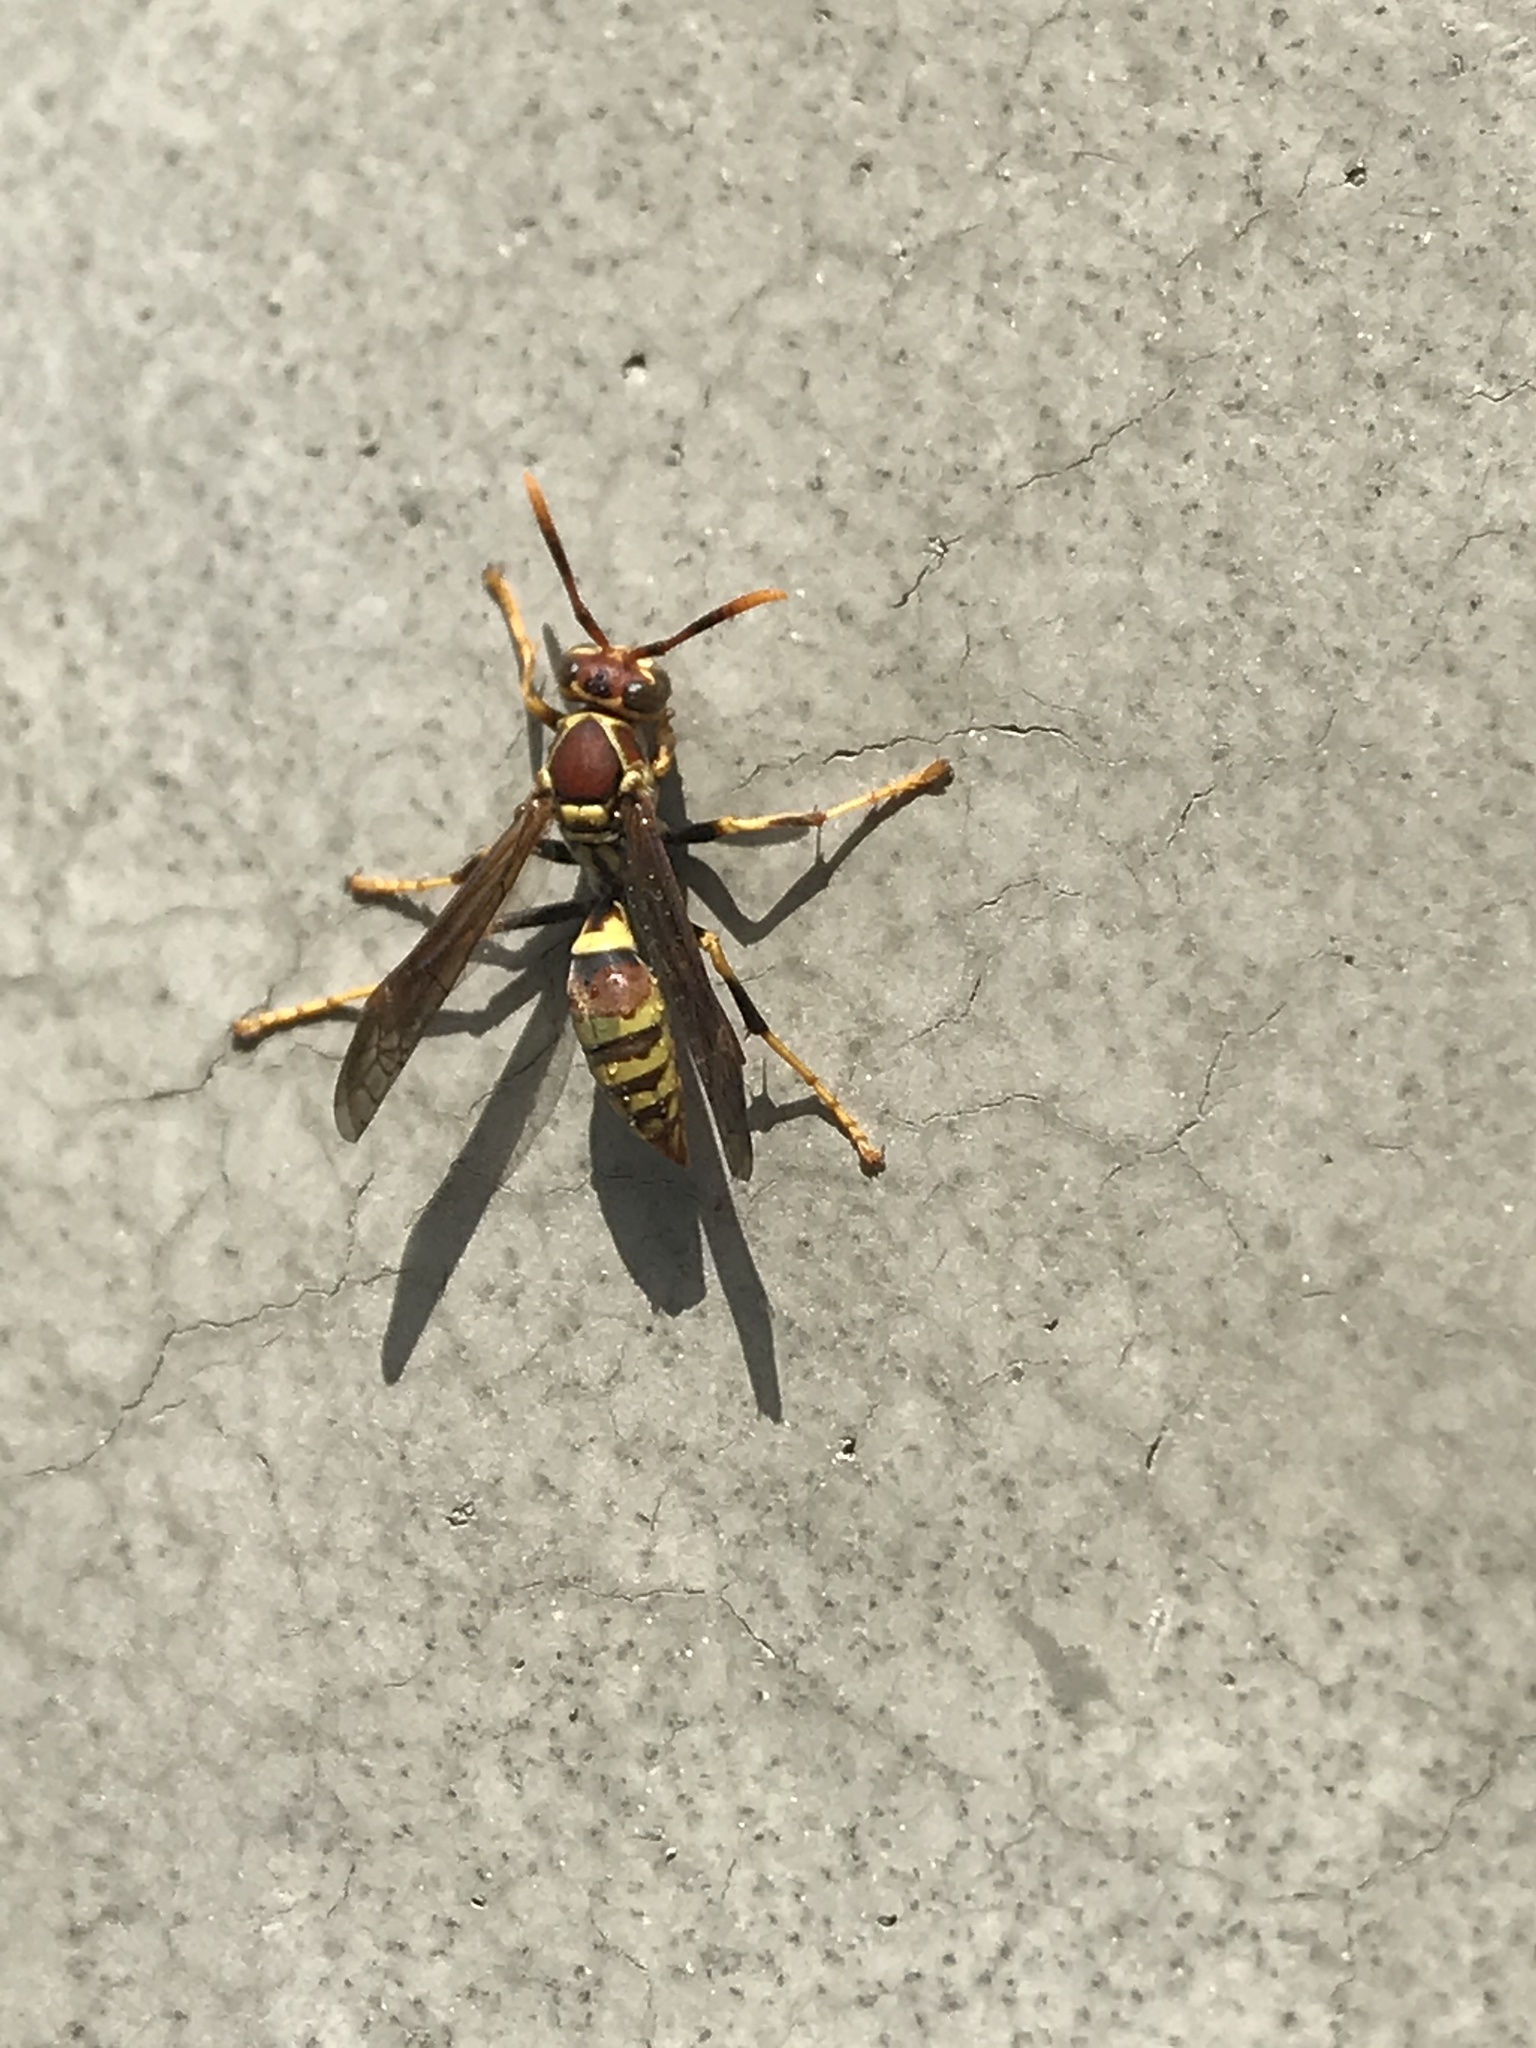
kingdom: Animalia
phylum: Arthropoda
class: Insecta
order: Hymenoptera
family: Eumenidae
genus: Polistes
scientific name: Polistes exclamans
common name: Paper wasp
